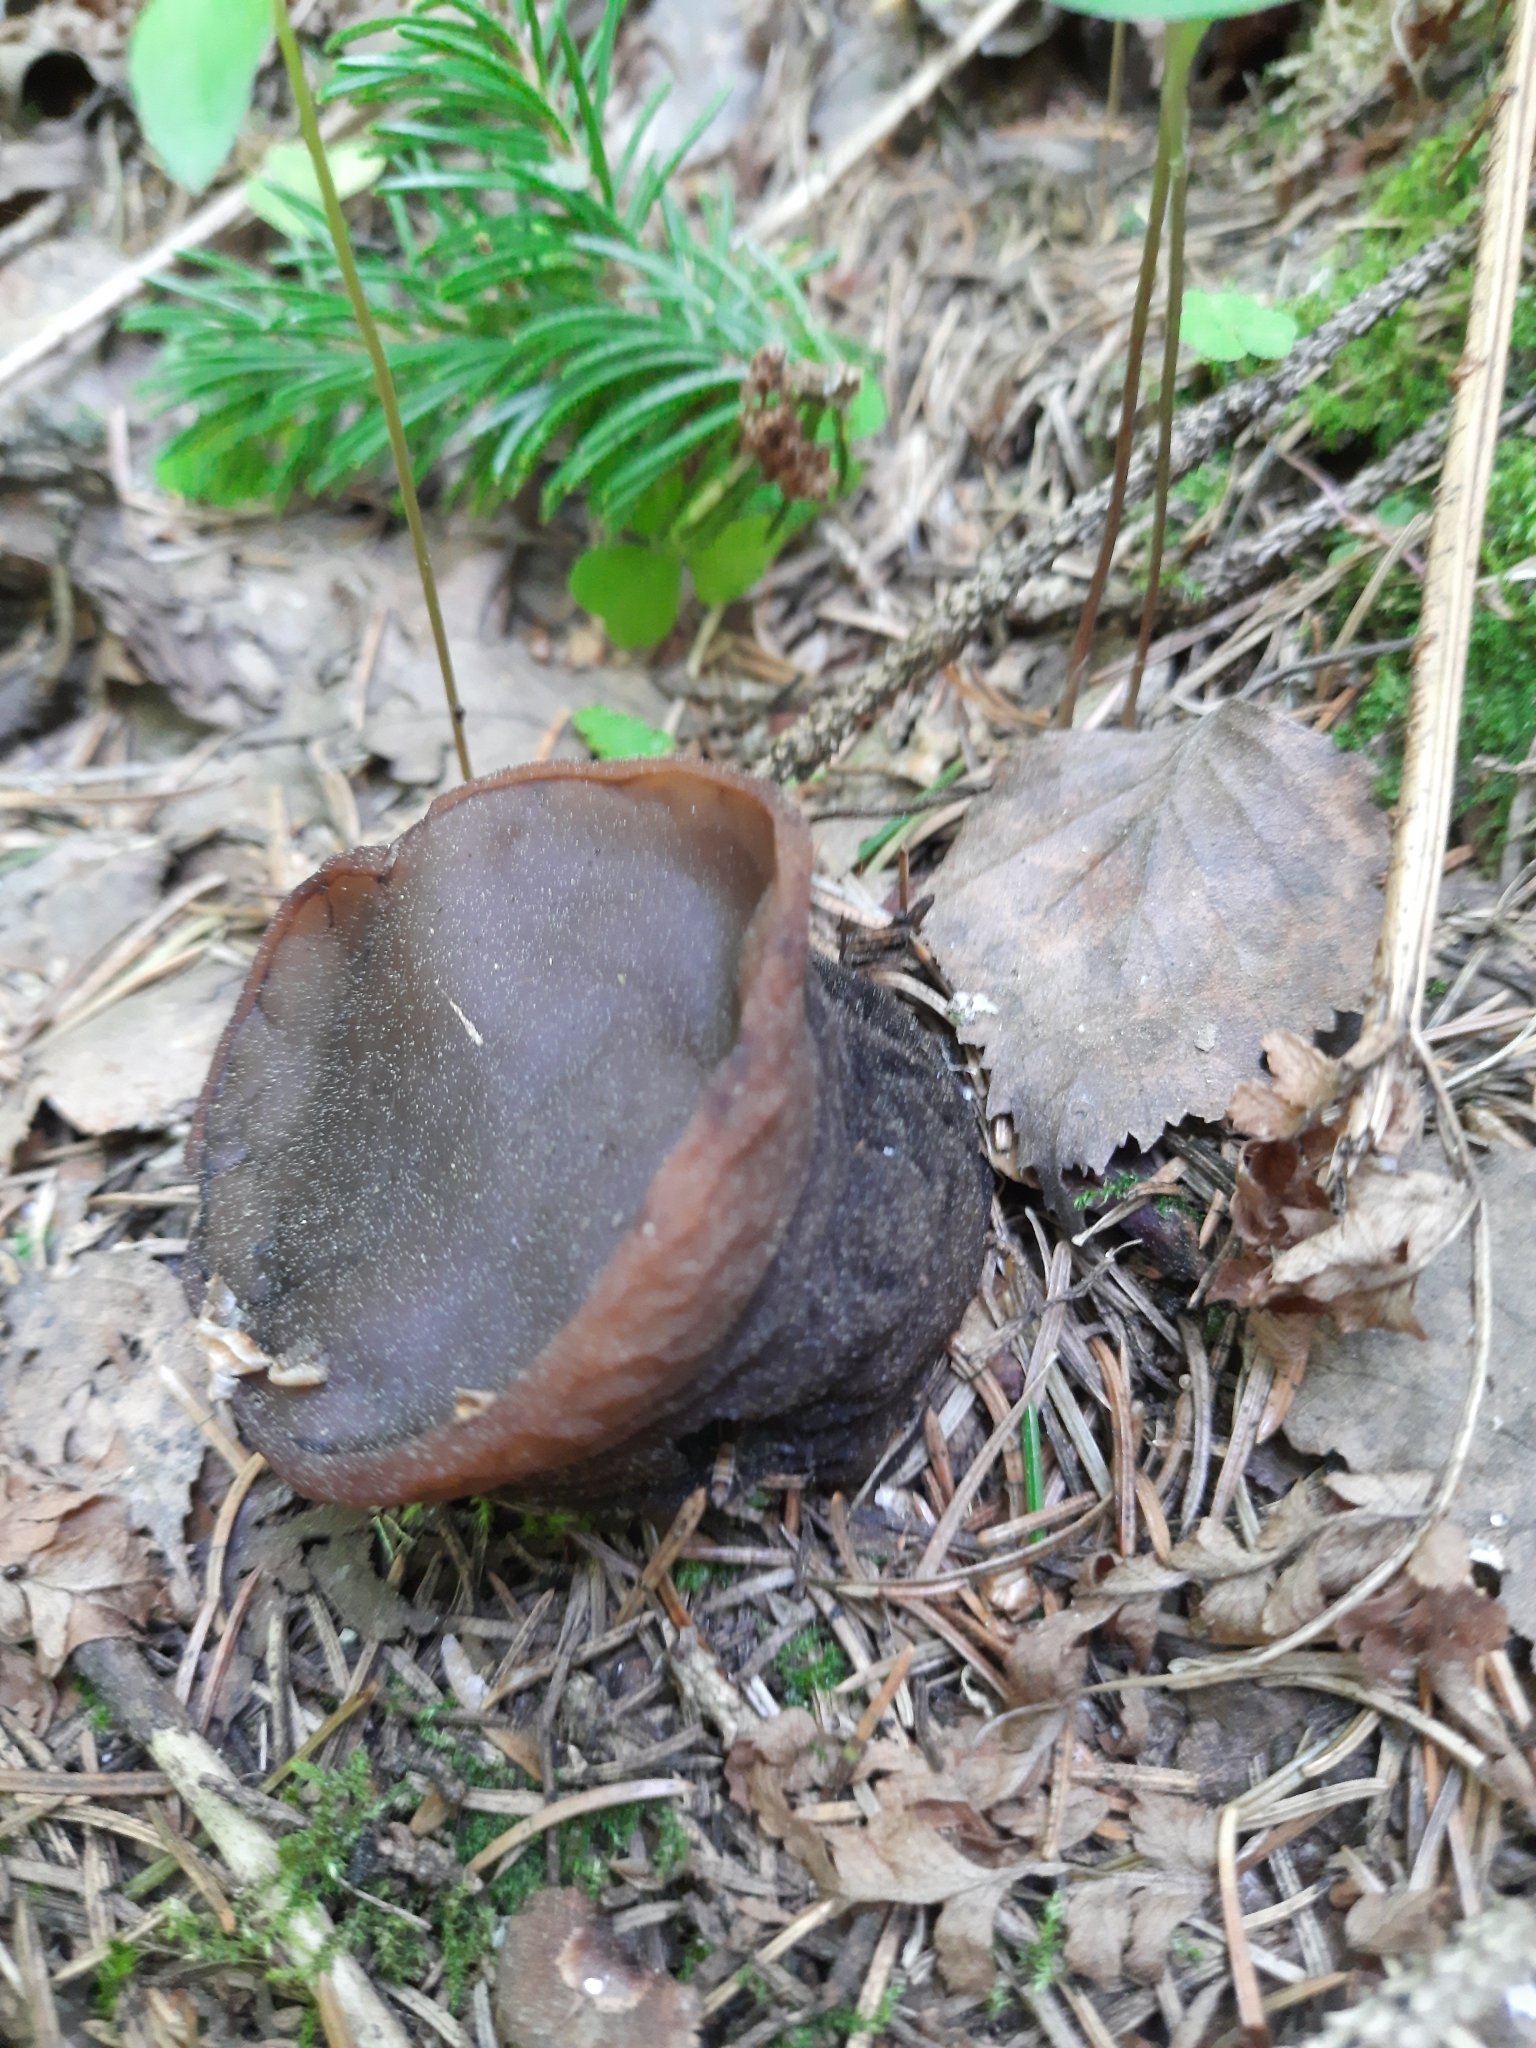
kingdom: Fungi
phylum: Ascomycota
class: Pezizomycetes
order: Pezizales
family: Sarcosomataceae
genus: Sarcosoma
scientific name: Sarcosoma globosum
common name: Charred-pancake cup
